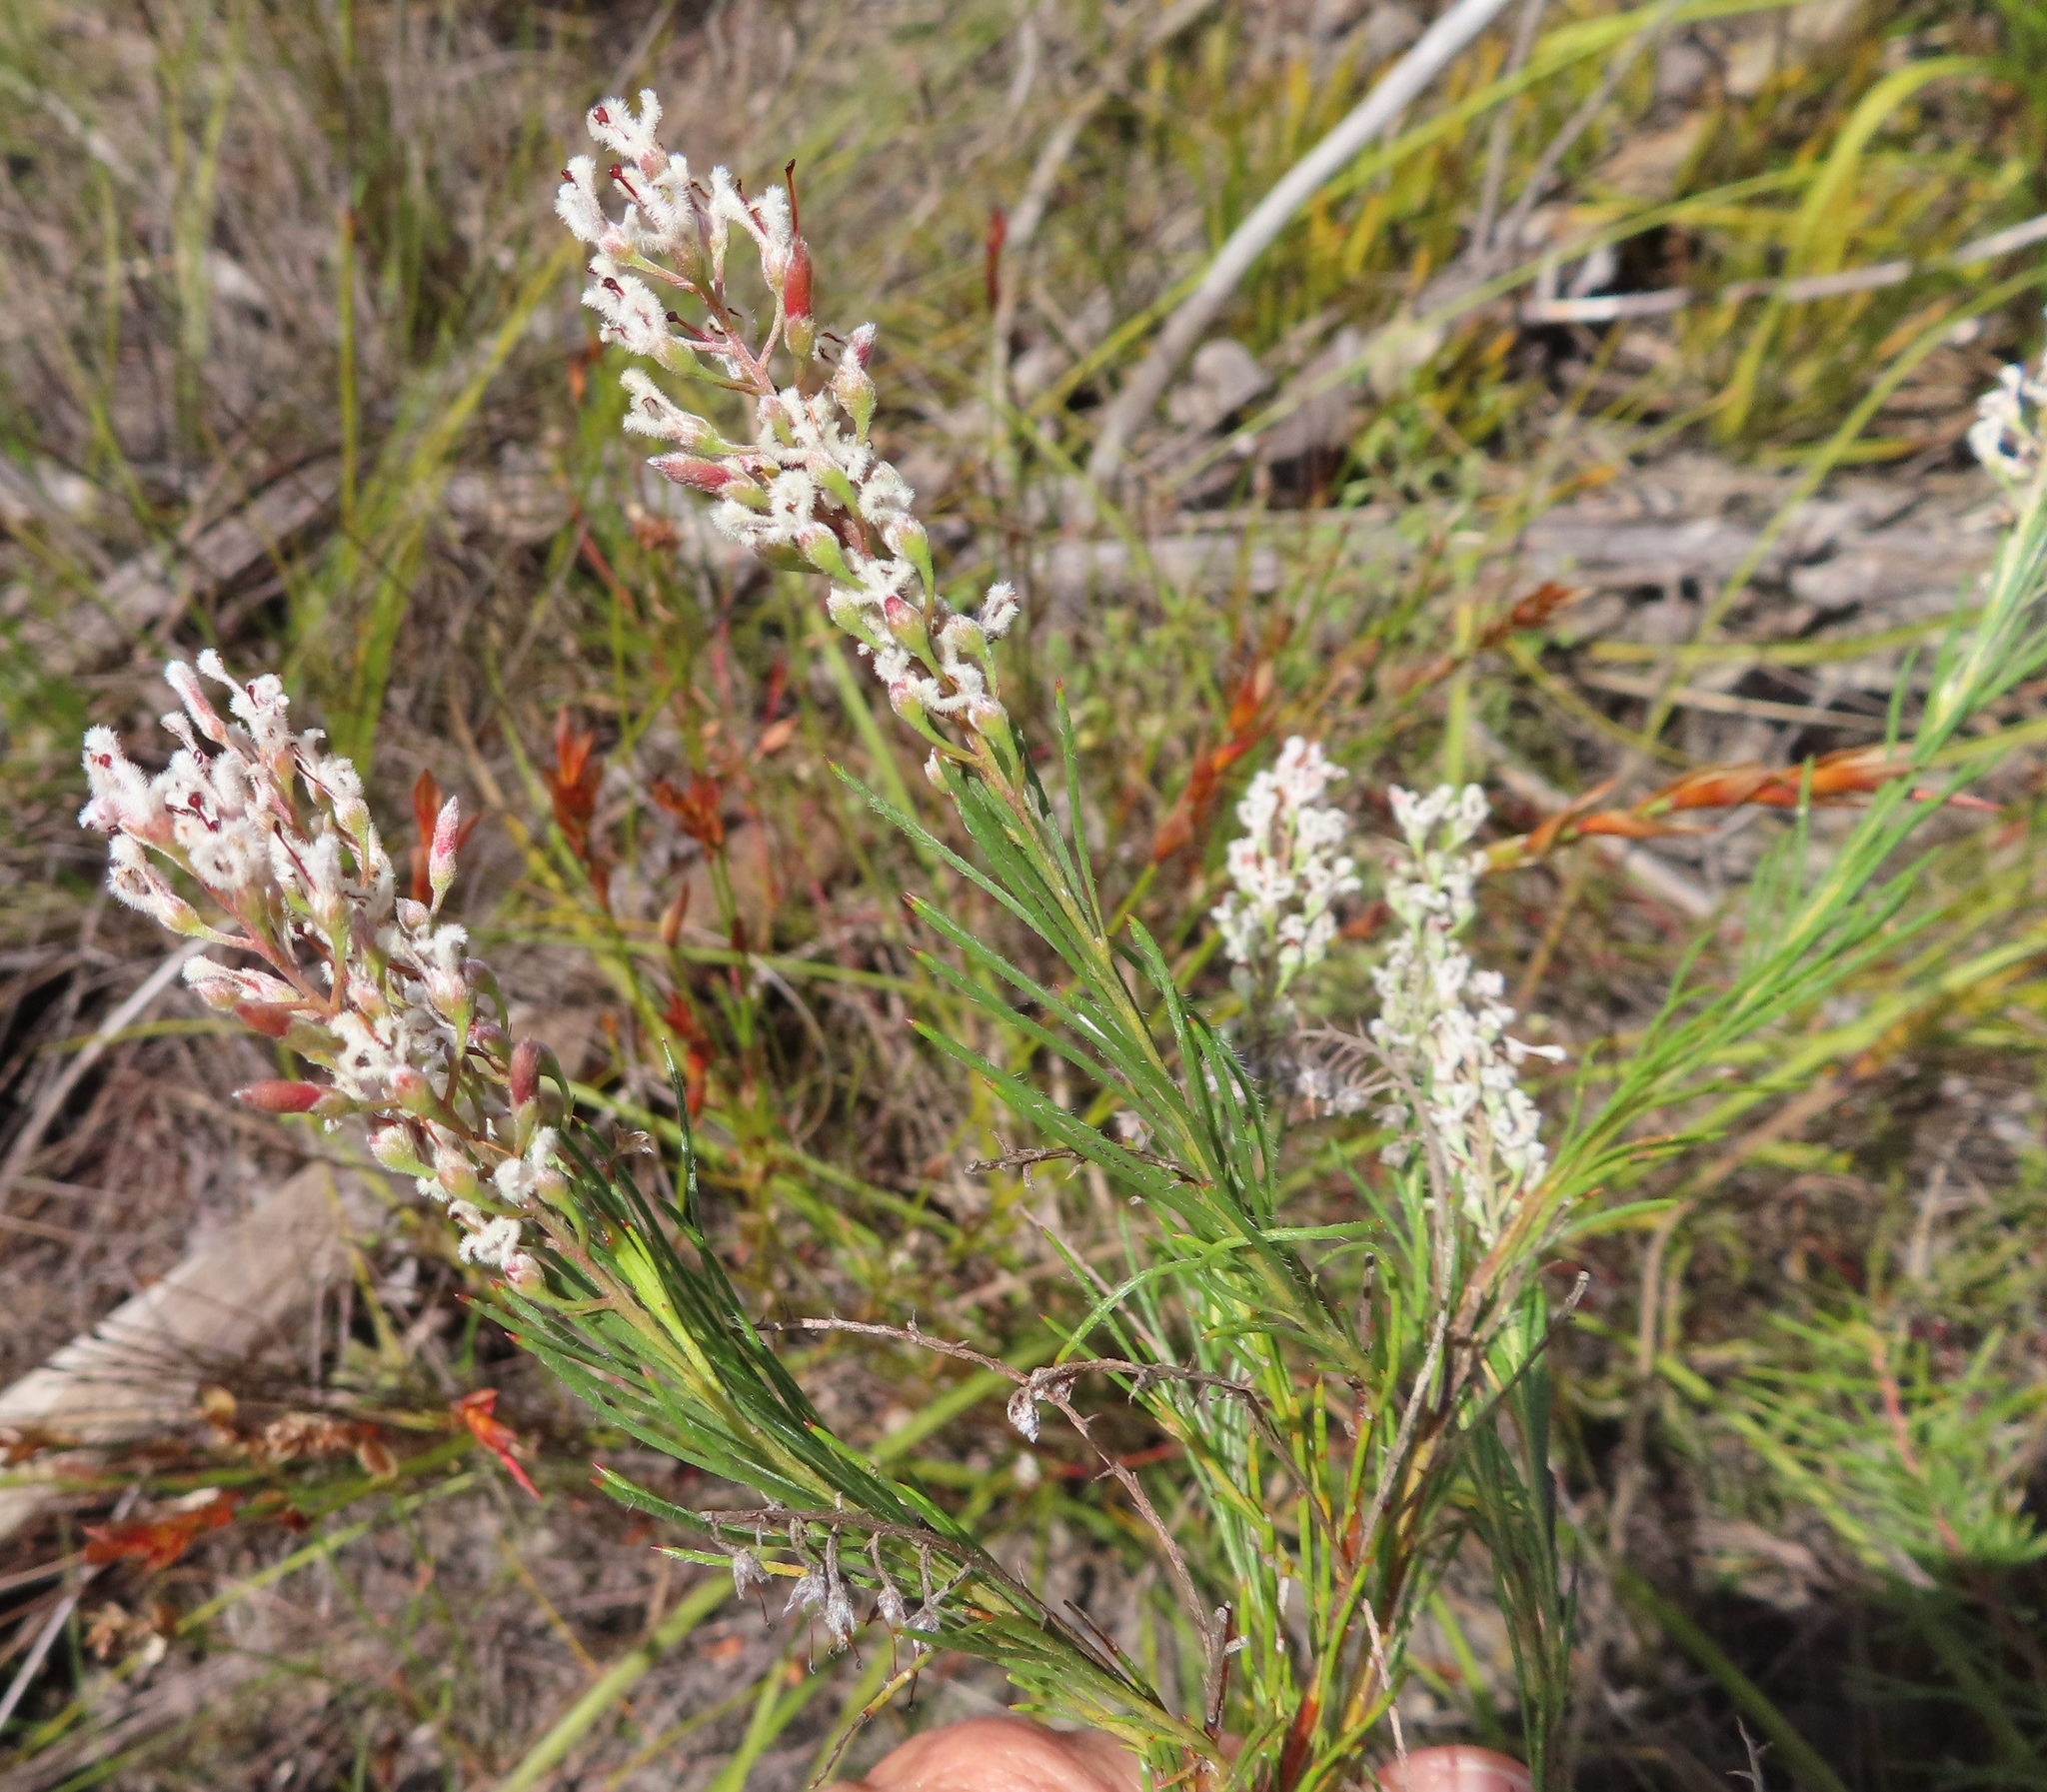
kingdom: Plantae
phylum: Tracheophyta
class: Magnoliopsida
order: Proteales
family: Proteaceae
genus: Spatalla
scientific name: Spatalla racemosa
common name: Lax-stalked spoon
